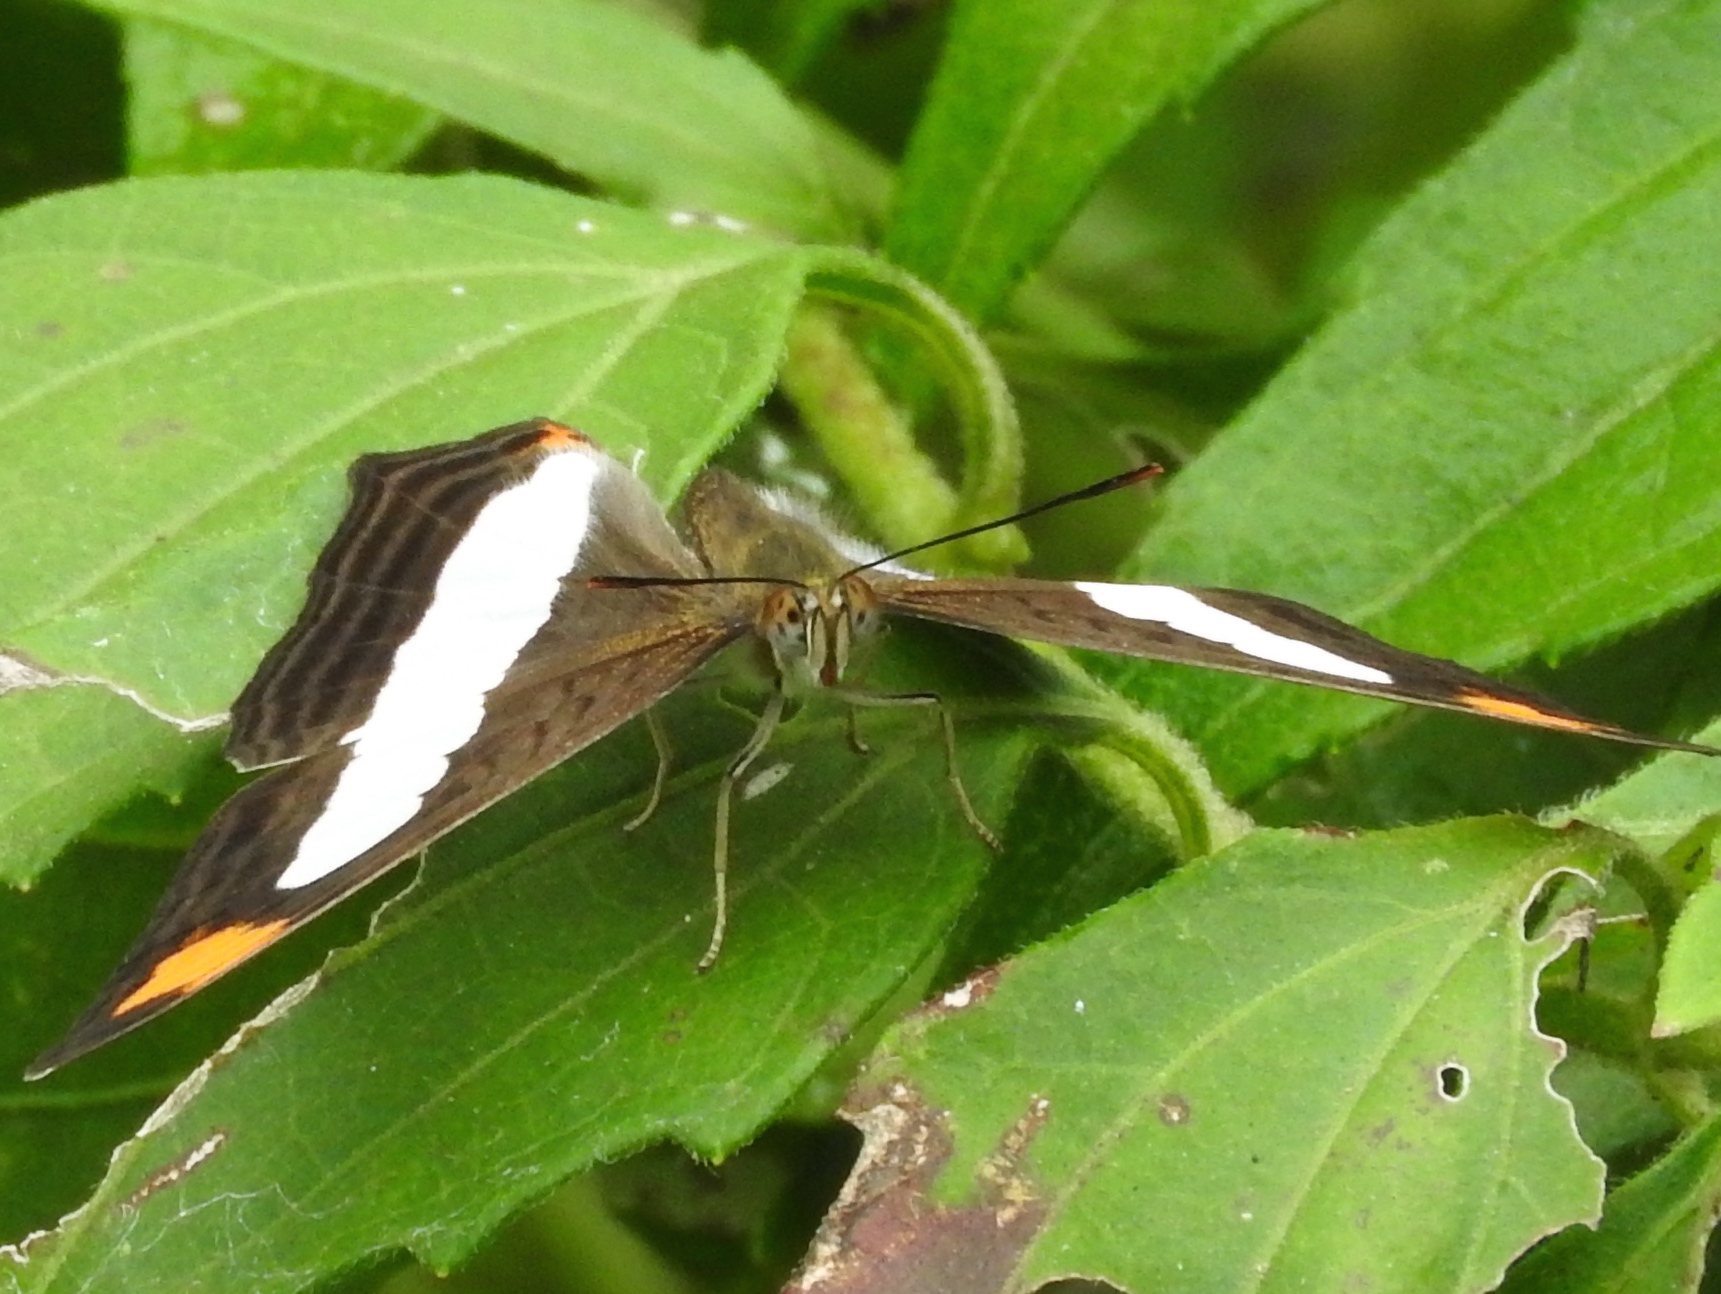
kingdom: Animalia
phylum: Arthropoda
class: Insecta
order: Lepidoptera
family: Nymphalidae
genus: Limenitis
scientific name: Limenitis iphiclus
